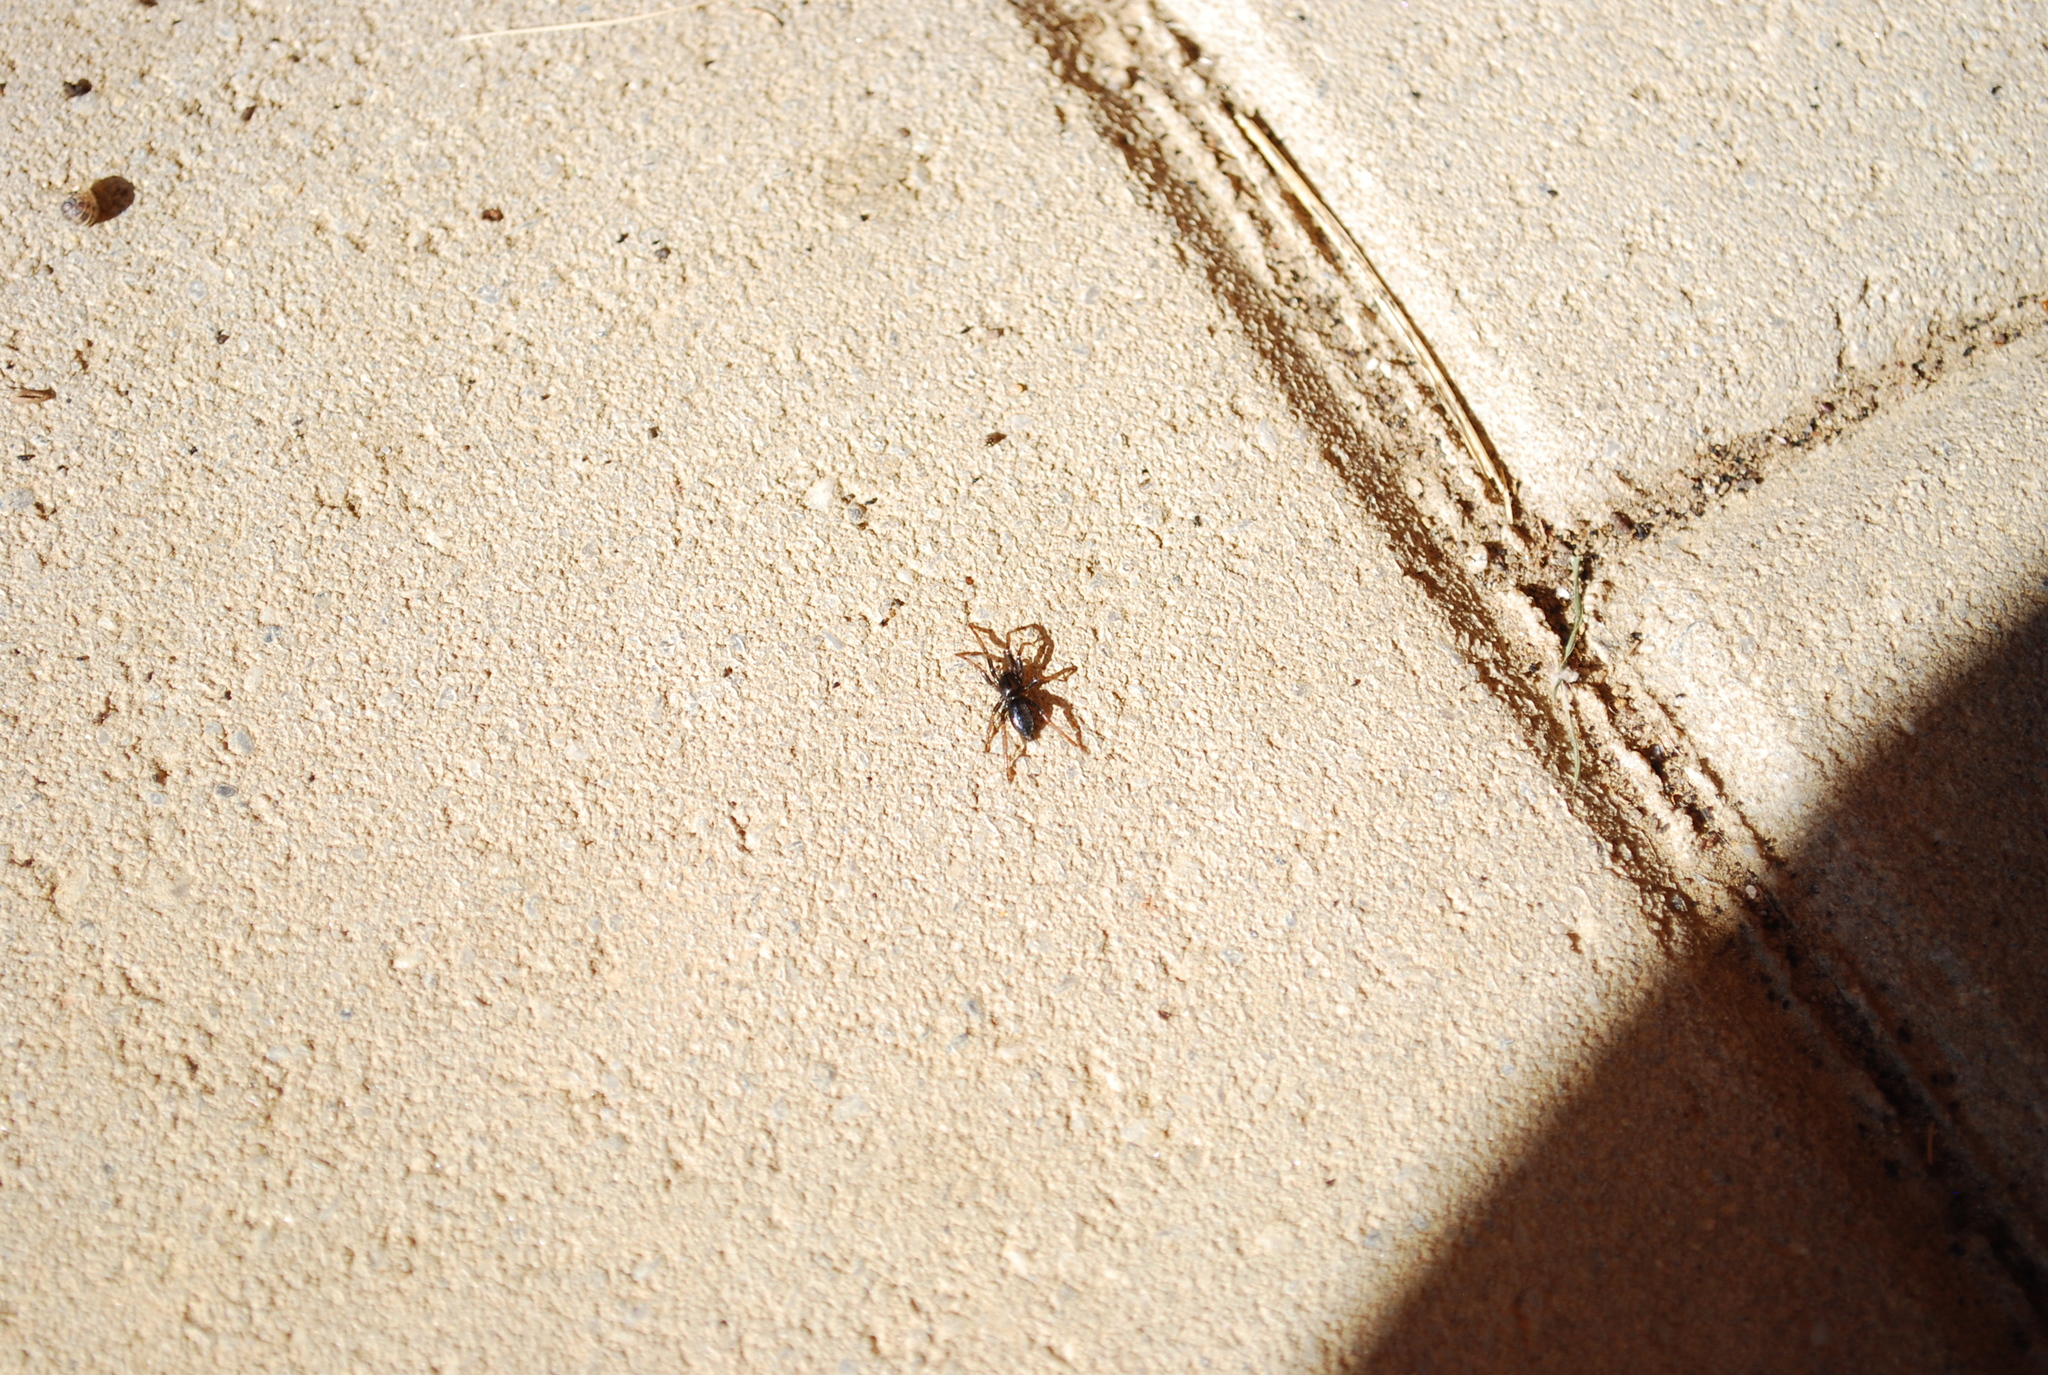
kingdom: Animalia
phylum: Arthropoda
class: Arachnida
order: Araneae
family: Gnaphosidae
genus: Trachyzelotes
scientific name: Trachyzelotes pedestris
